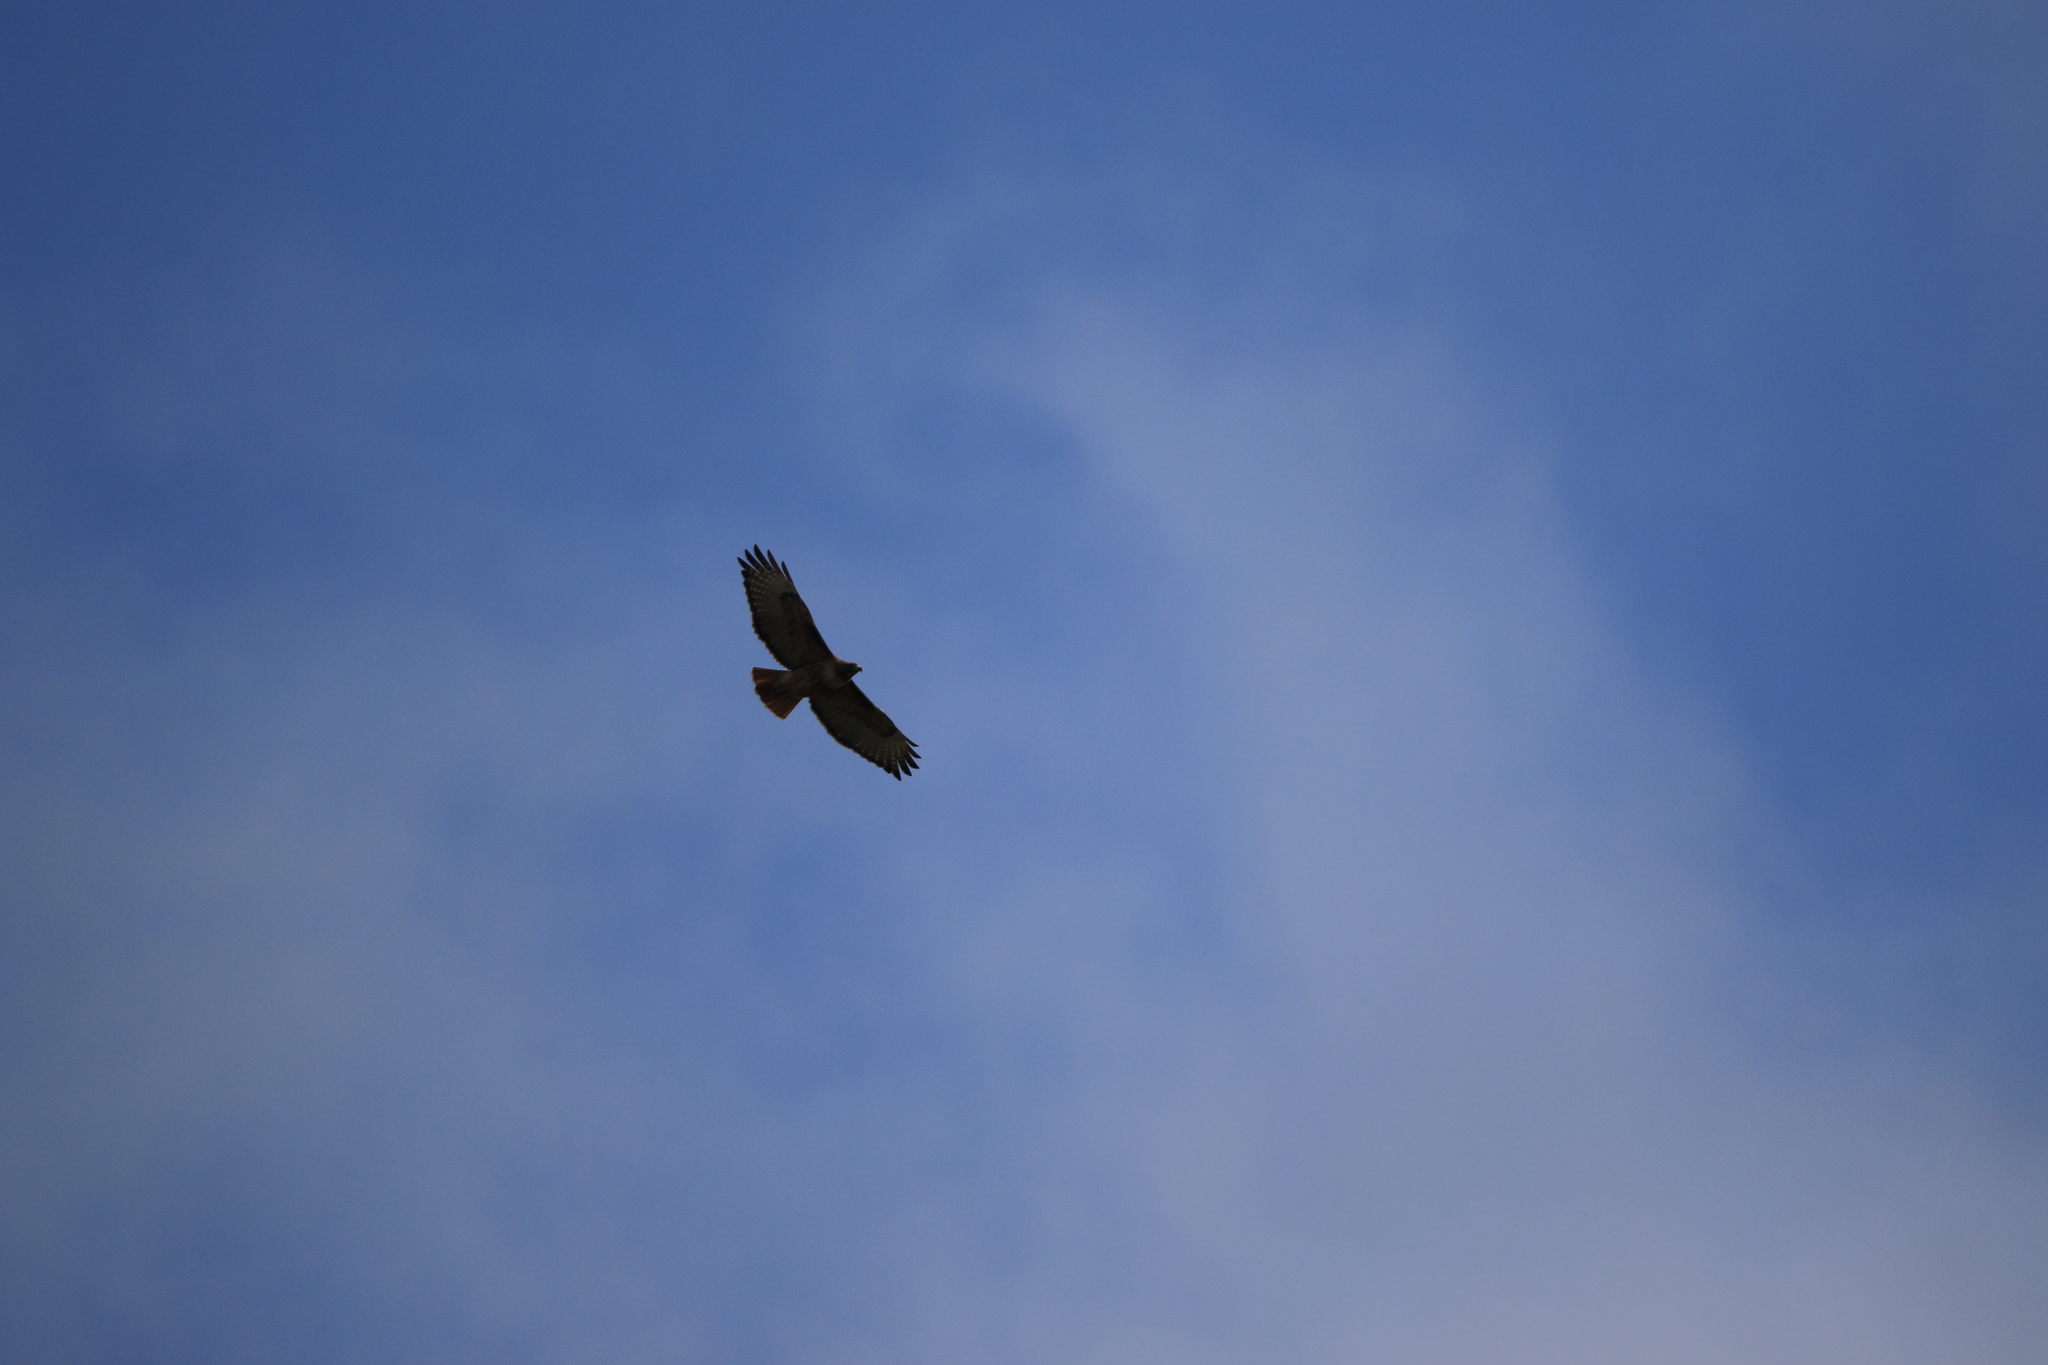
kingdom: Animalia
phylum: Chordata
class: Aves
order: Accipitriformes
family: Accipitridae
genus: Buteo
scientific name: Buteo jamaicensis
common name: Red-tailed hawk
